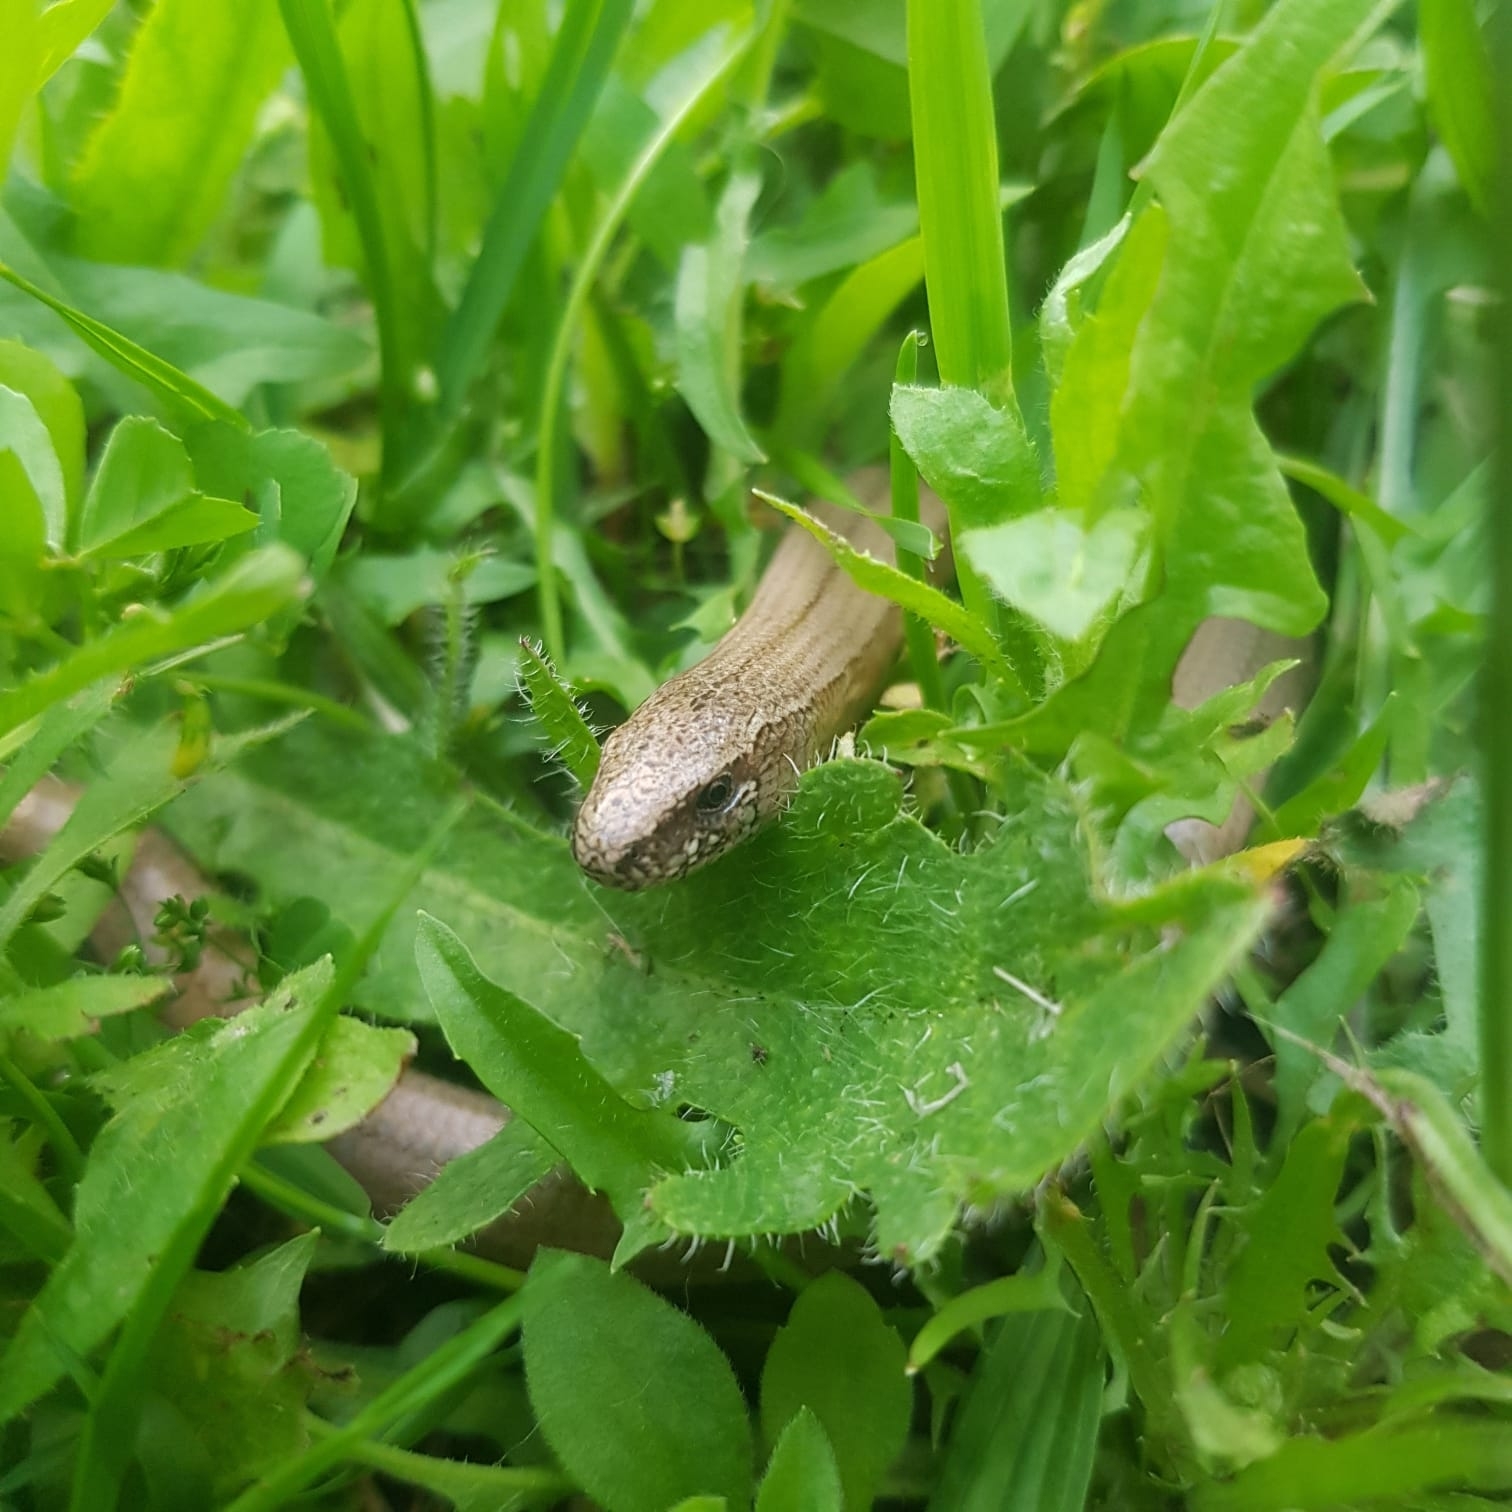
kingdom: Animalia
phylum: Chordata
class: Squamata
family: Anguidae
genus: Anguis
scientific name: Anguis fragilis
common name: Slow worm
